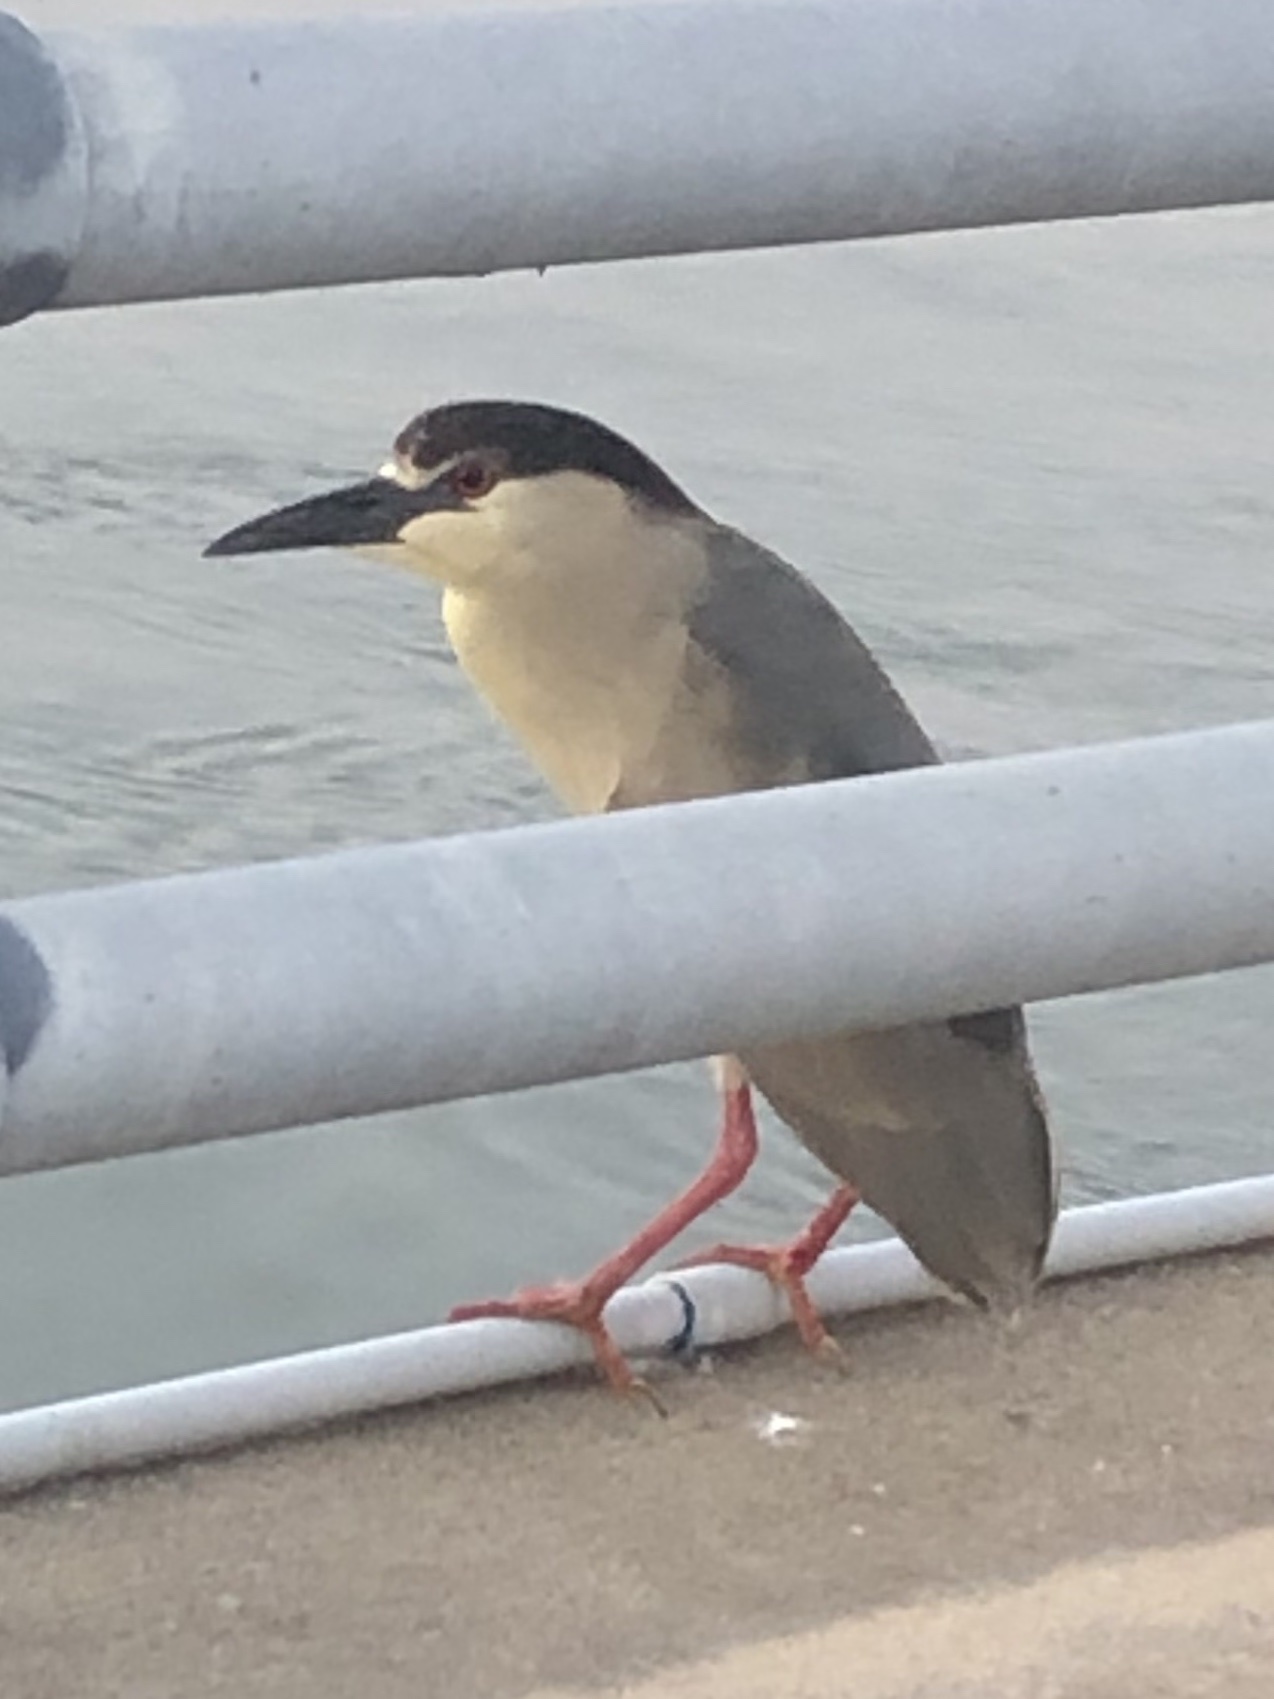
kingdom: Animalia
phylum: Chordata
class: Aves
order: Pelecaniformes
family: Ardeidae
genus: Nycticorax
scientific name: Nycticorax nycticorax
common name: Black-crowned night heron
